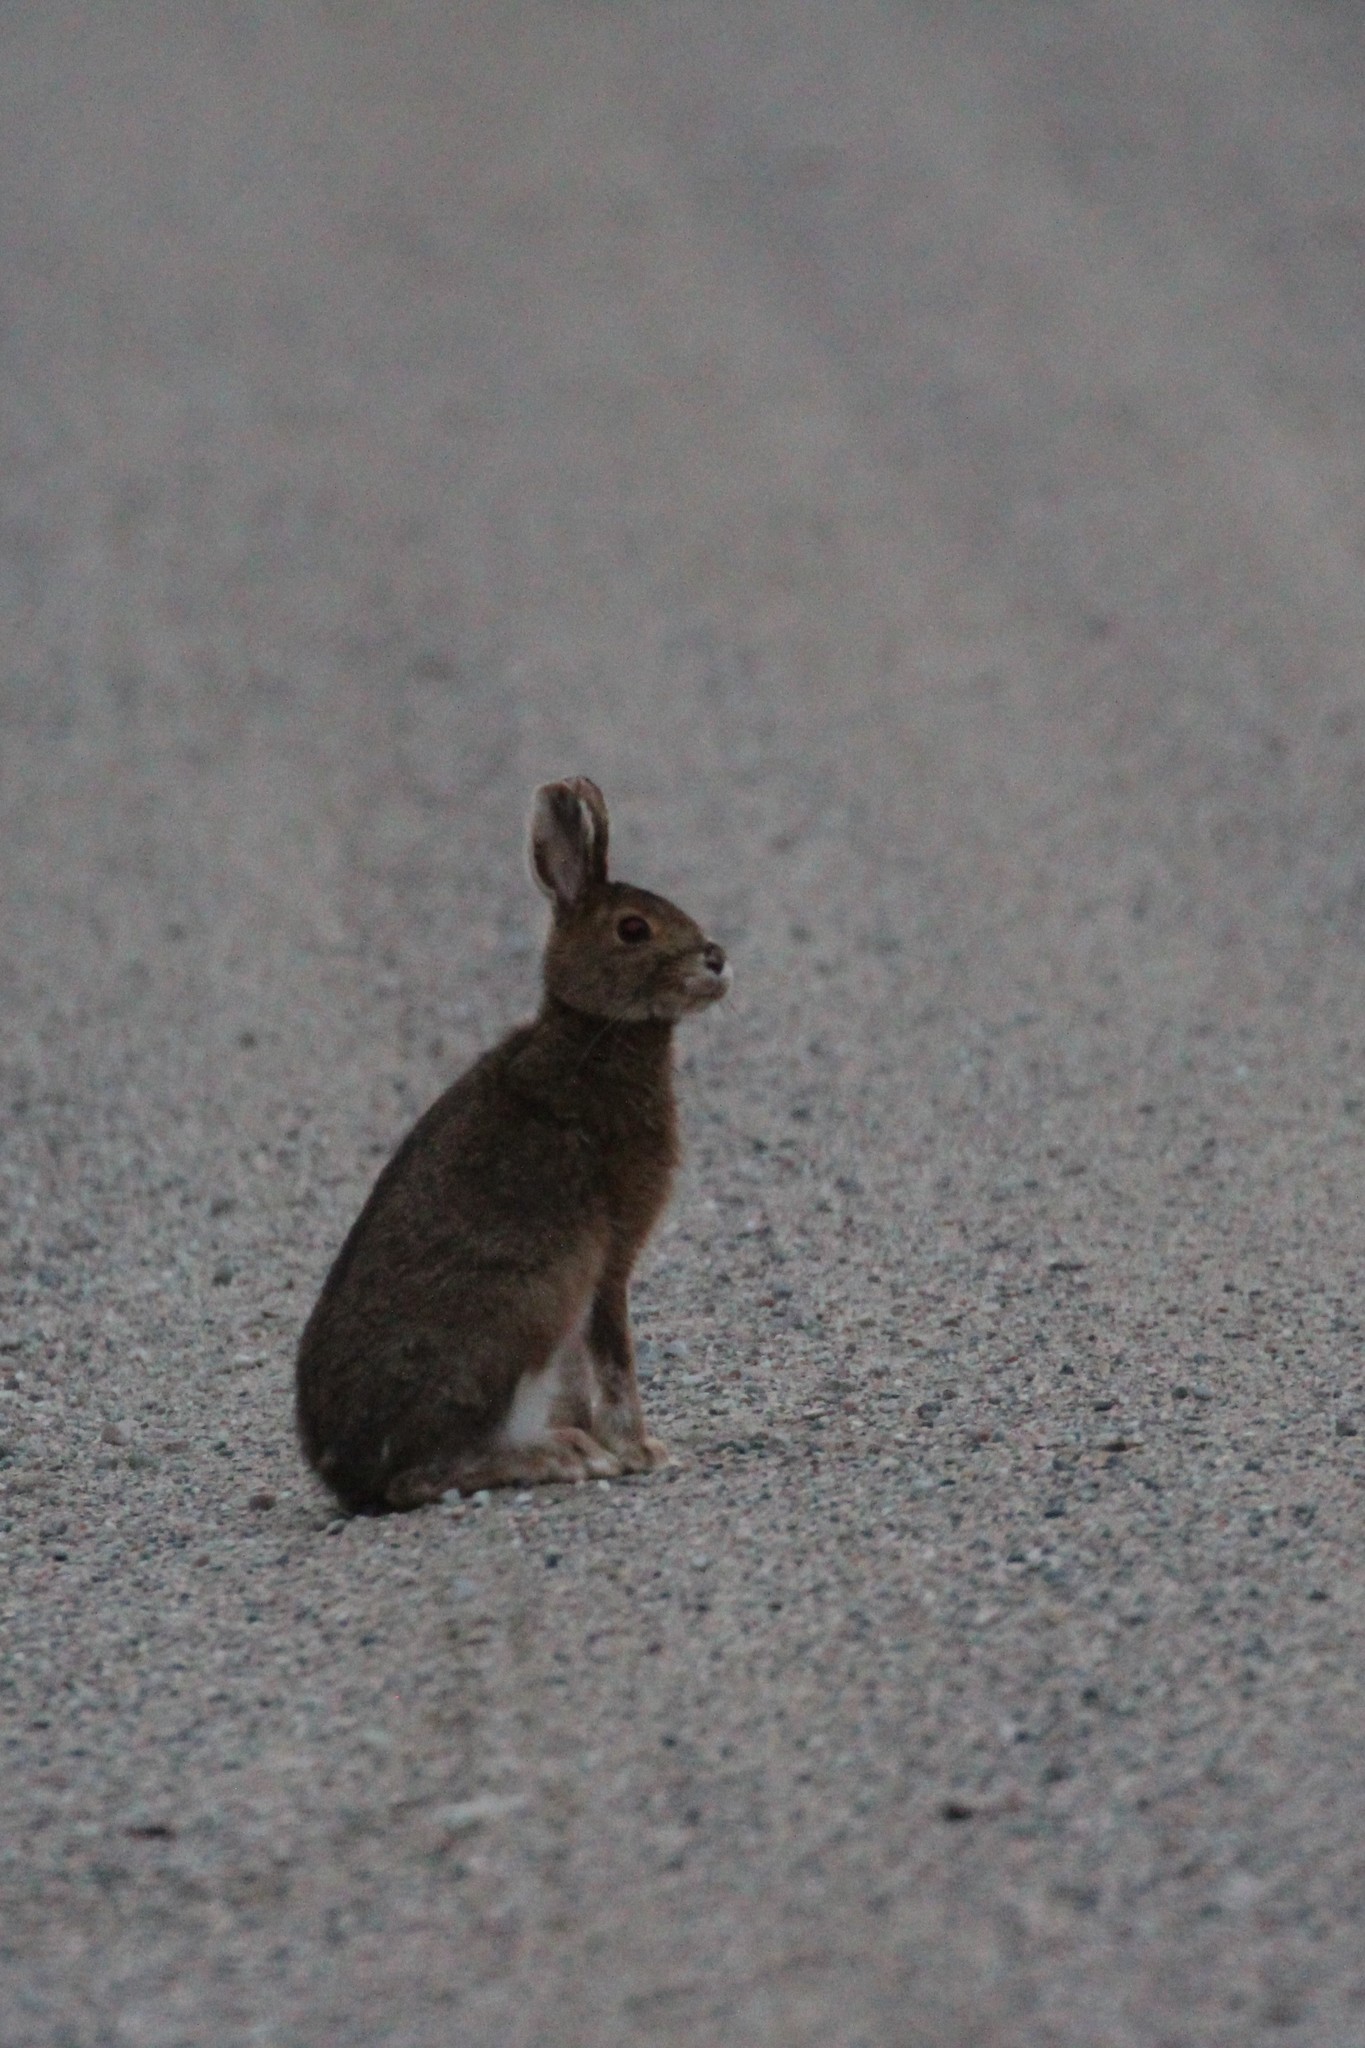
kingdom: Animalia
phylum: Chordata
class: Mammalia
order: Lagomorpha
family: Leporidae
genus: Lepus
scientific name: Lepus americanus
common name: Snowshoe hare
